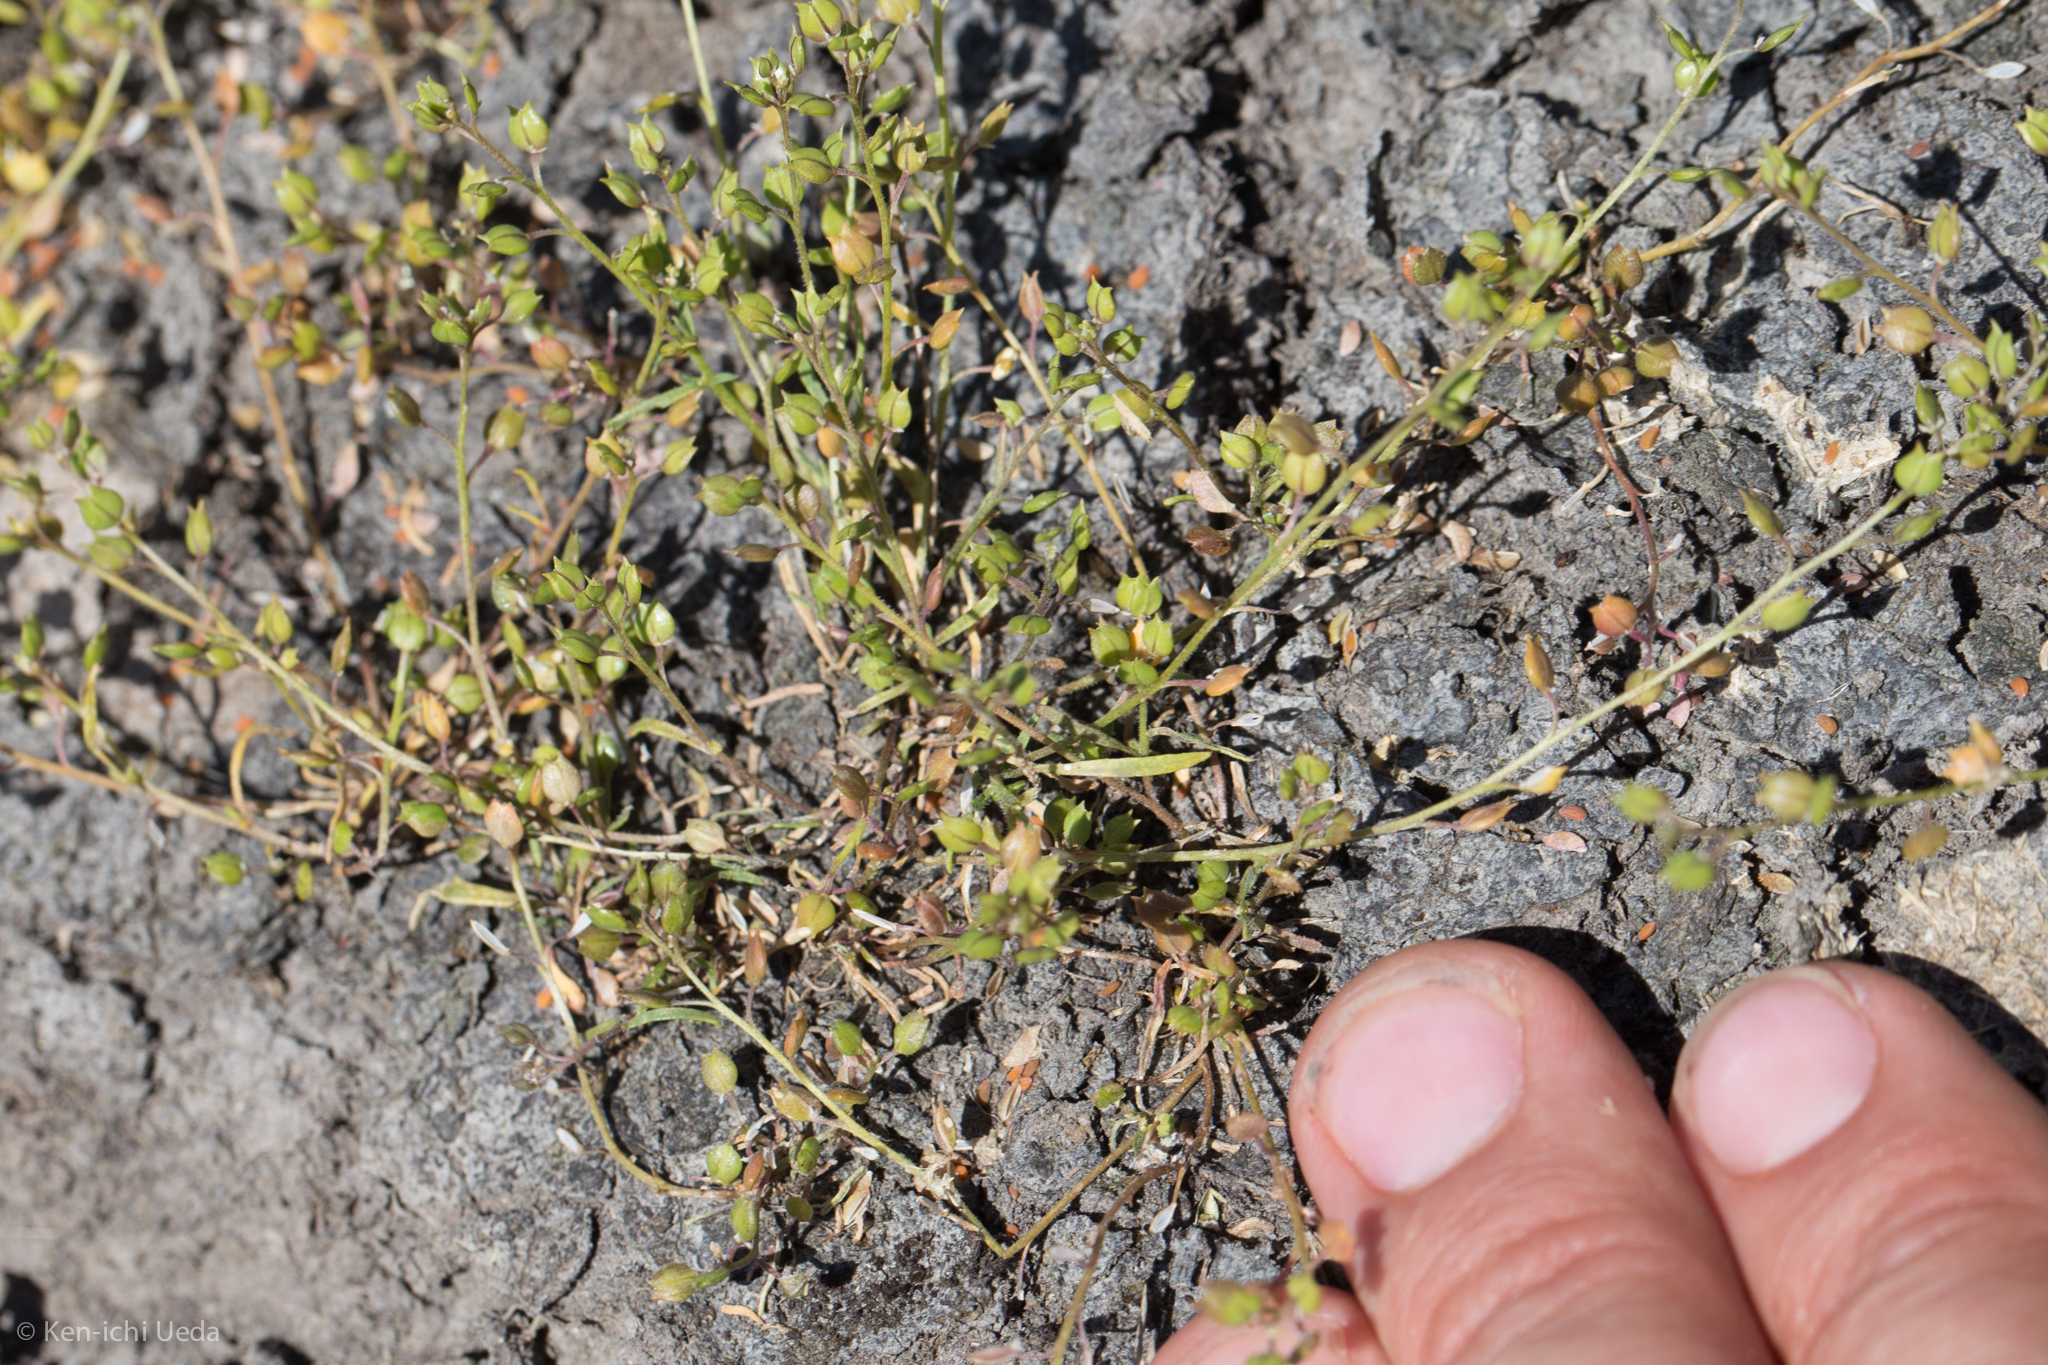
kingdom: Plantae
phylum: Tracheophyta
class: Magnoliopsida
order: Brassicales
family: Brassicaceae
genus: Lepidium
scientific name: Lepidium oxycarpum
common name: Forked peppergrass
